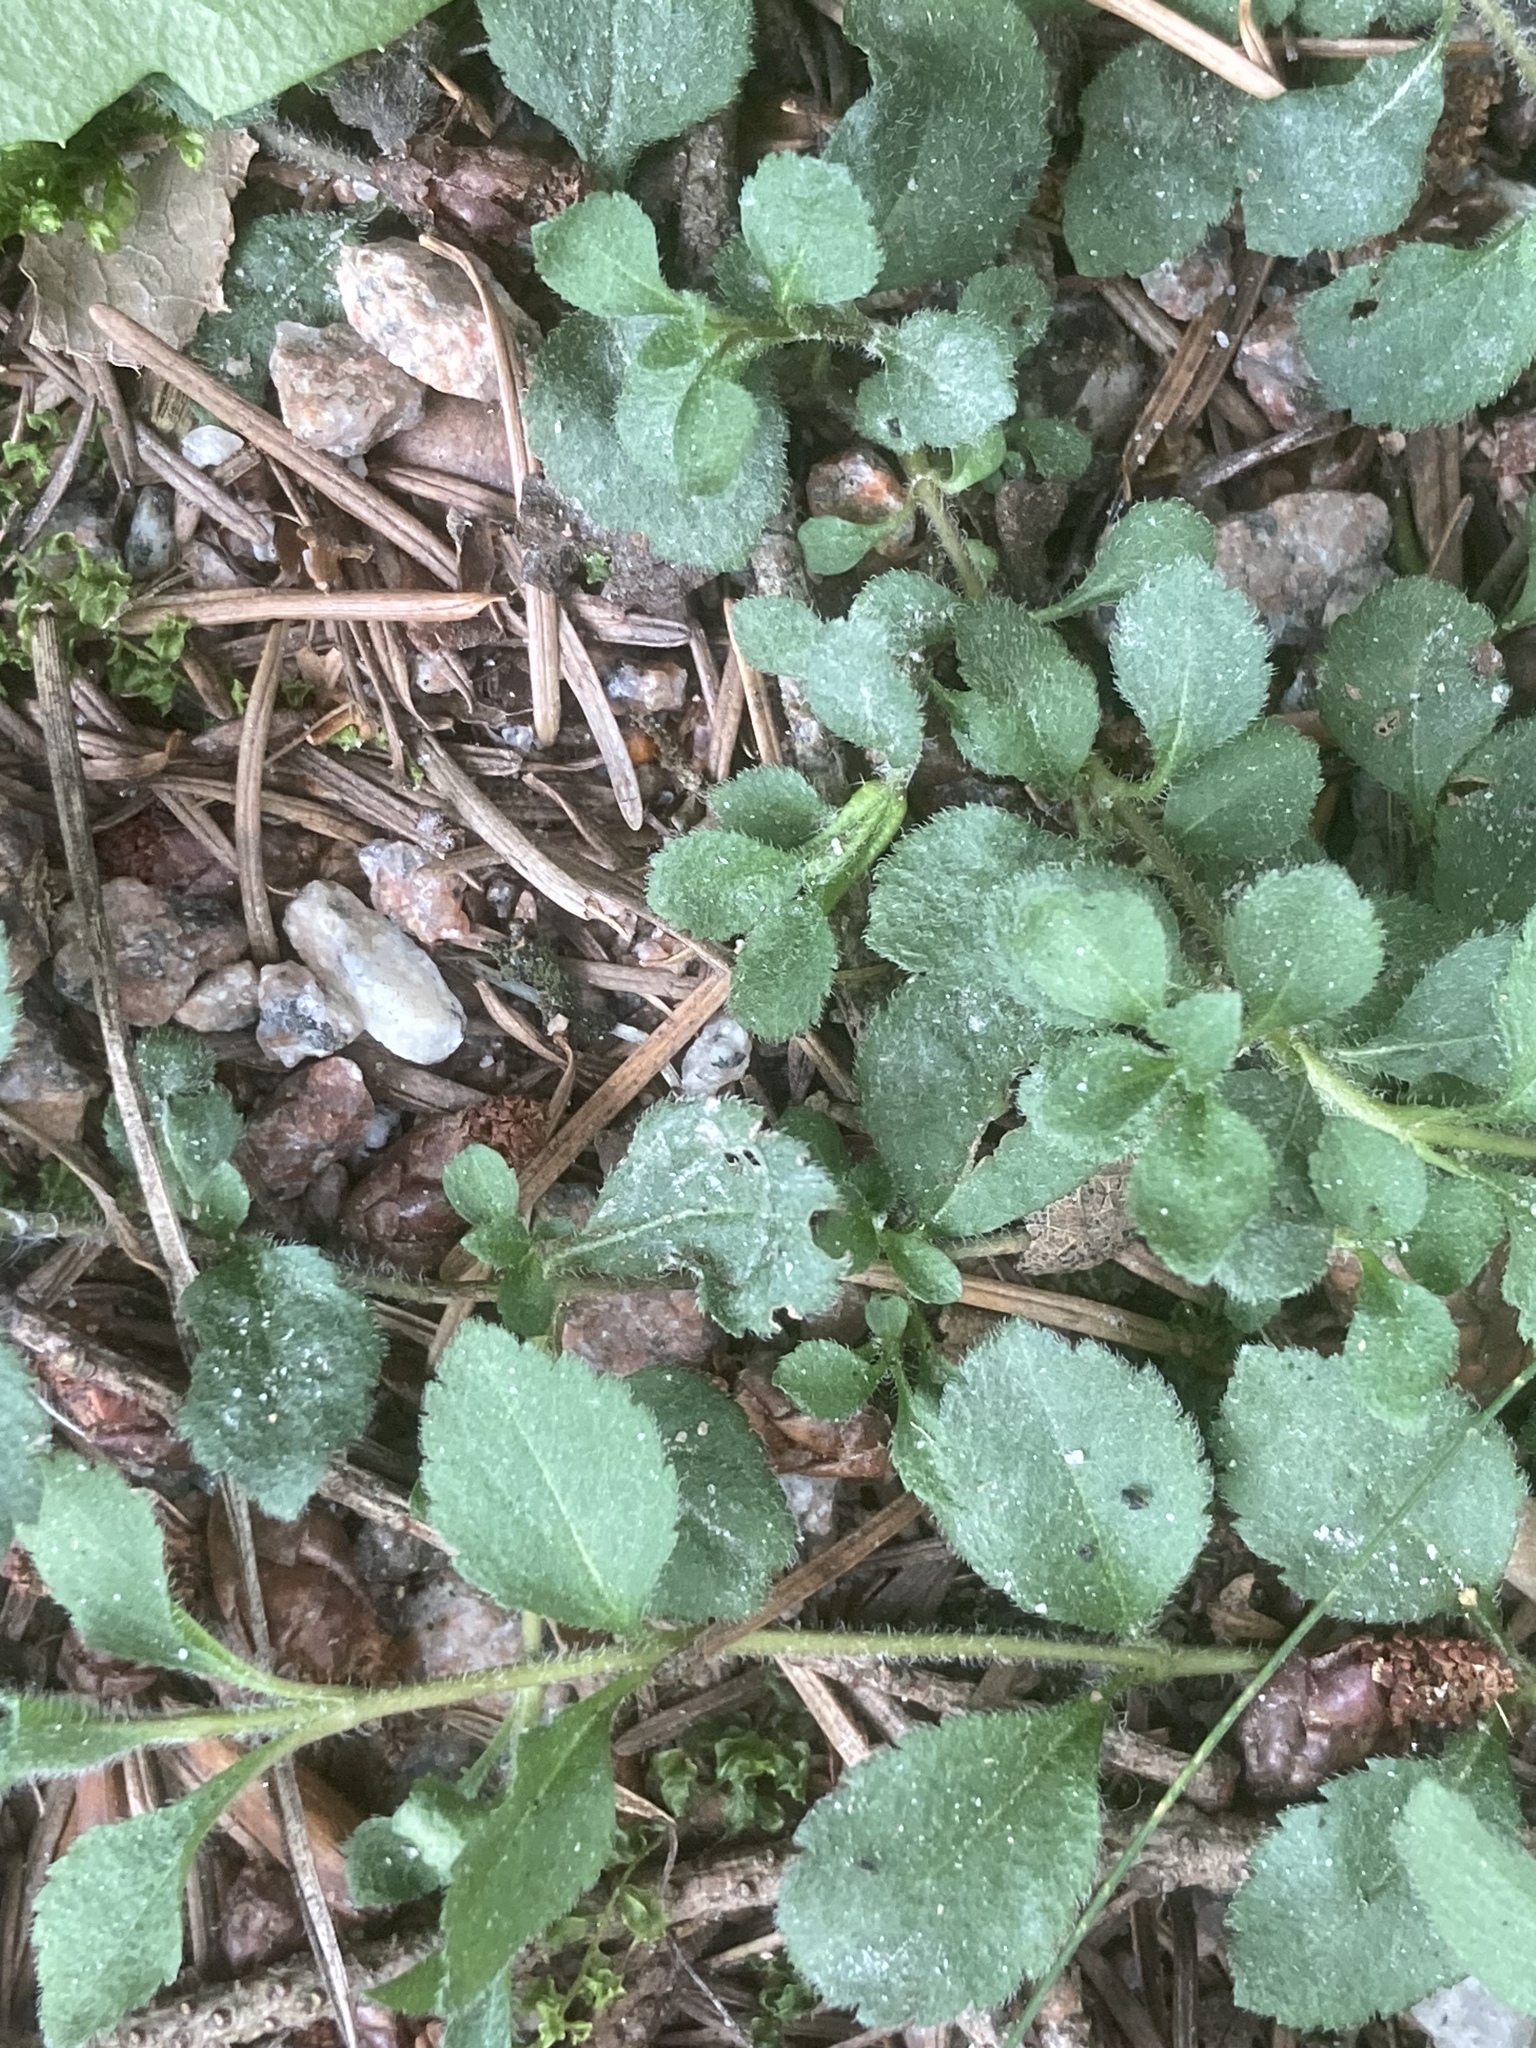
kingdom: Plantae
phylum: Tracheophyta
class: Magnoliopsida
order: Lamiales
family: Plantaginaceae
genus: Veronica
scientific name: Veronica officinalis
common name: Common speedwell
